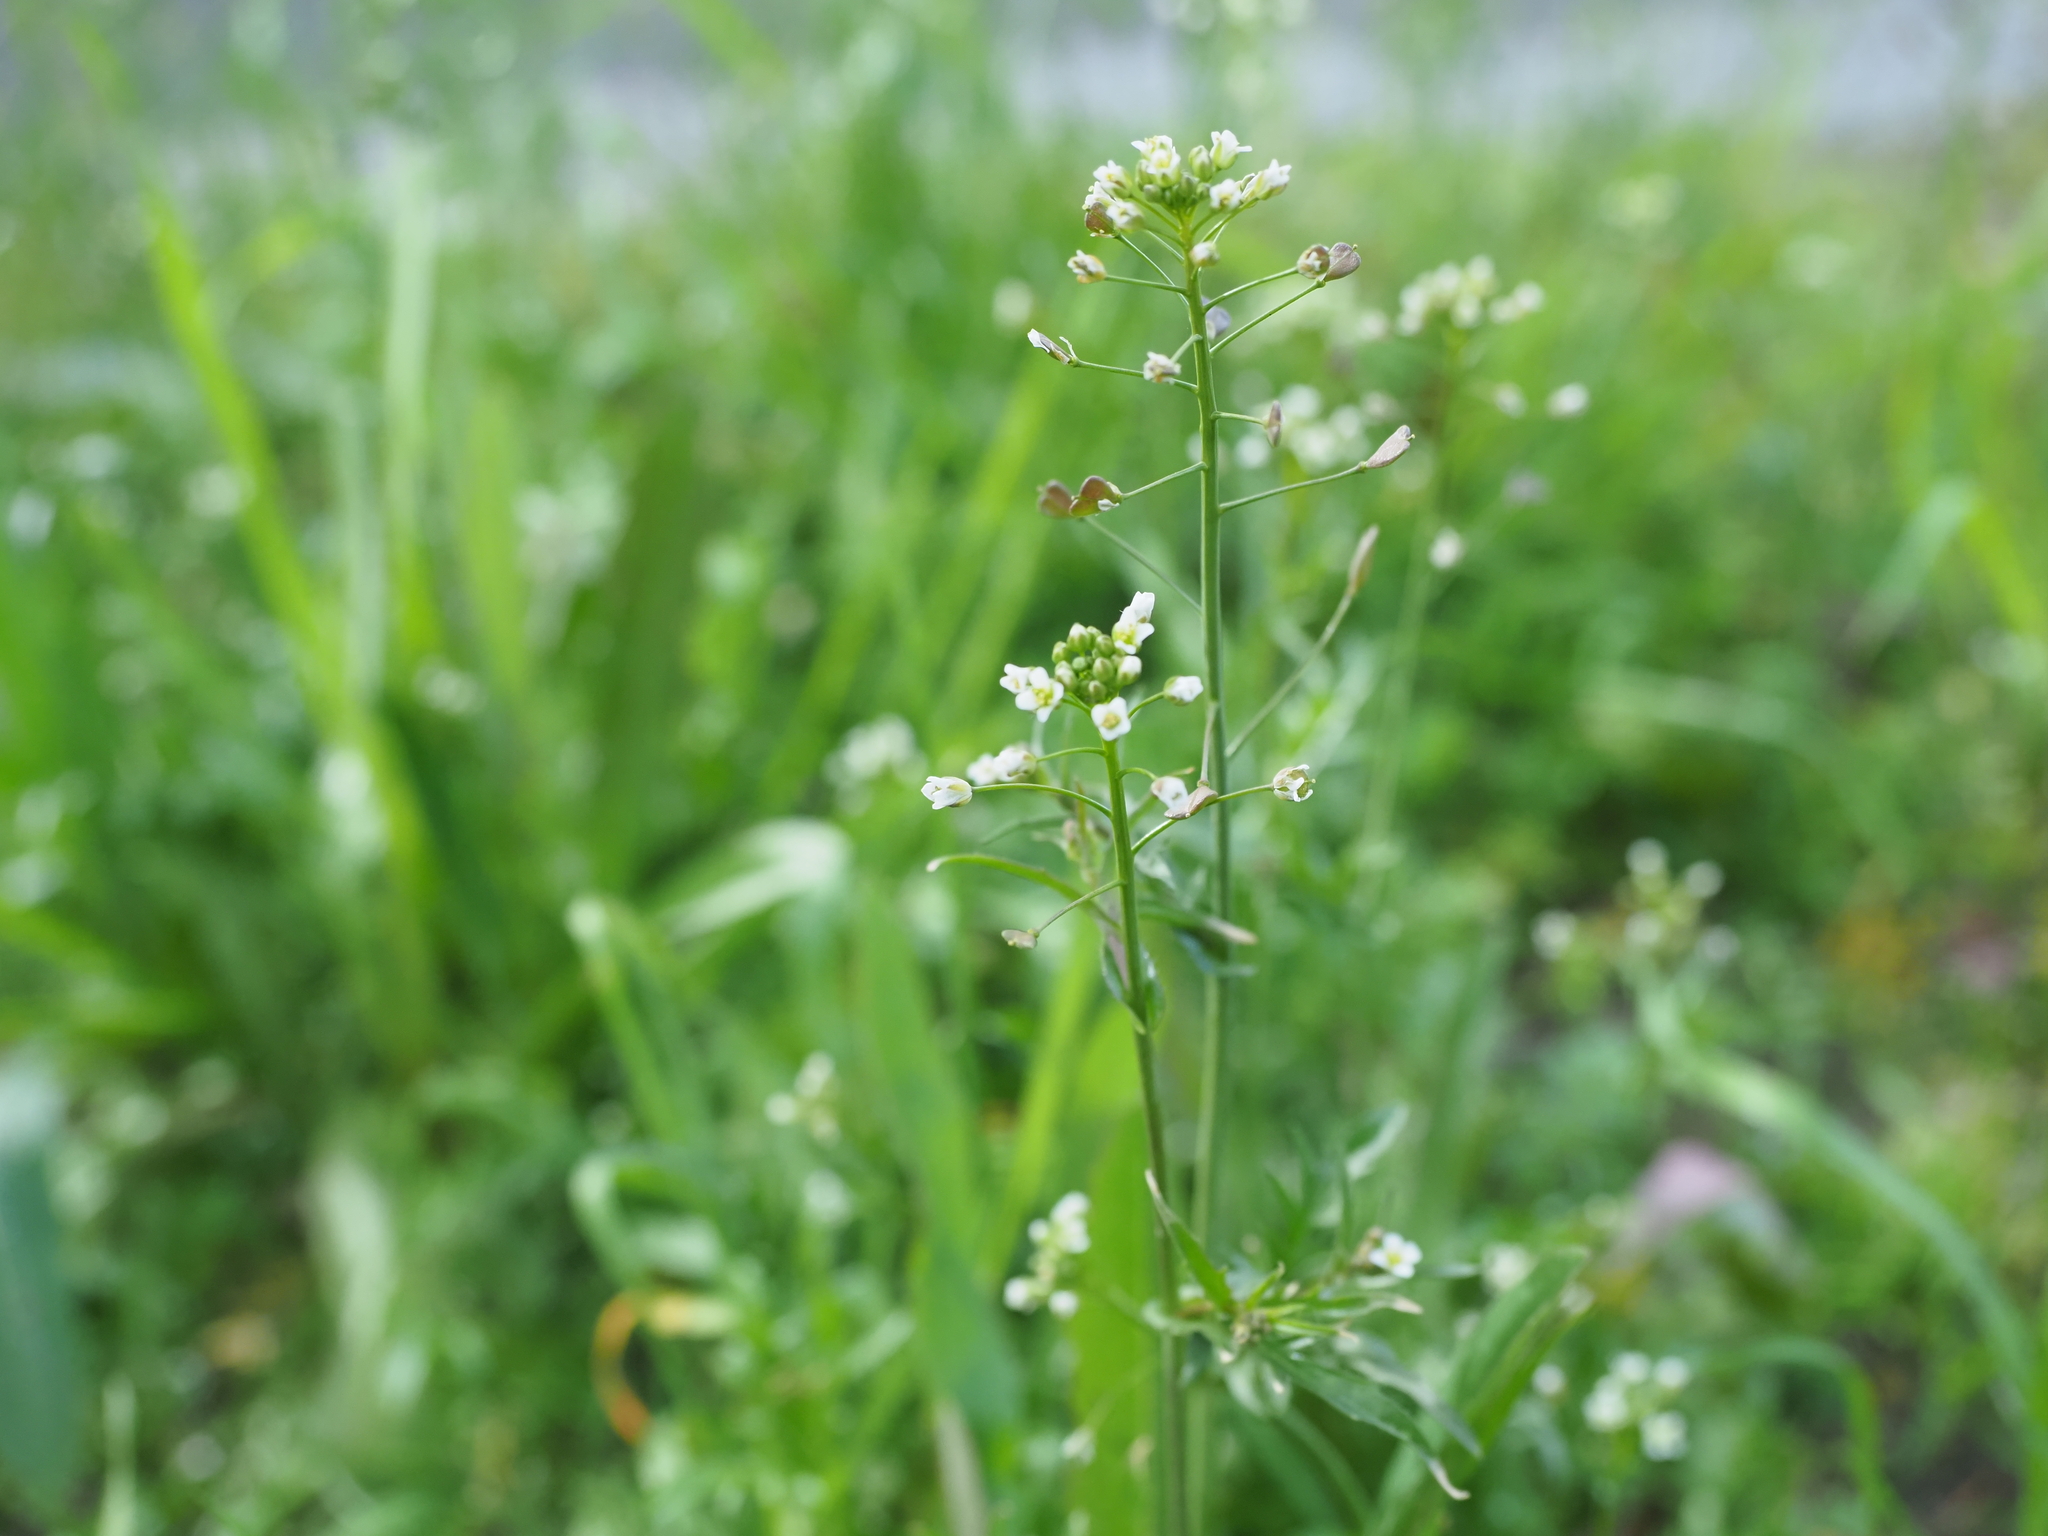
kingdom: Plantae
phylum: Tracheophyta
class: Magnoliopsida
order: Brassicales
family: Brassicaceae
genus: Capsella
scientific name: Capsella bursa-pastoris
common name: Shepherd's purse
